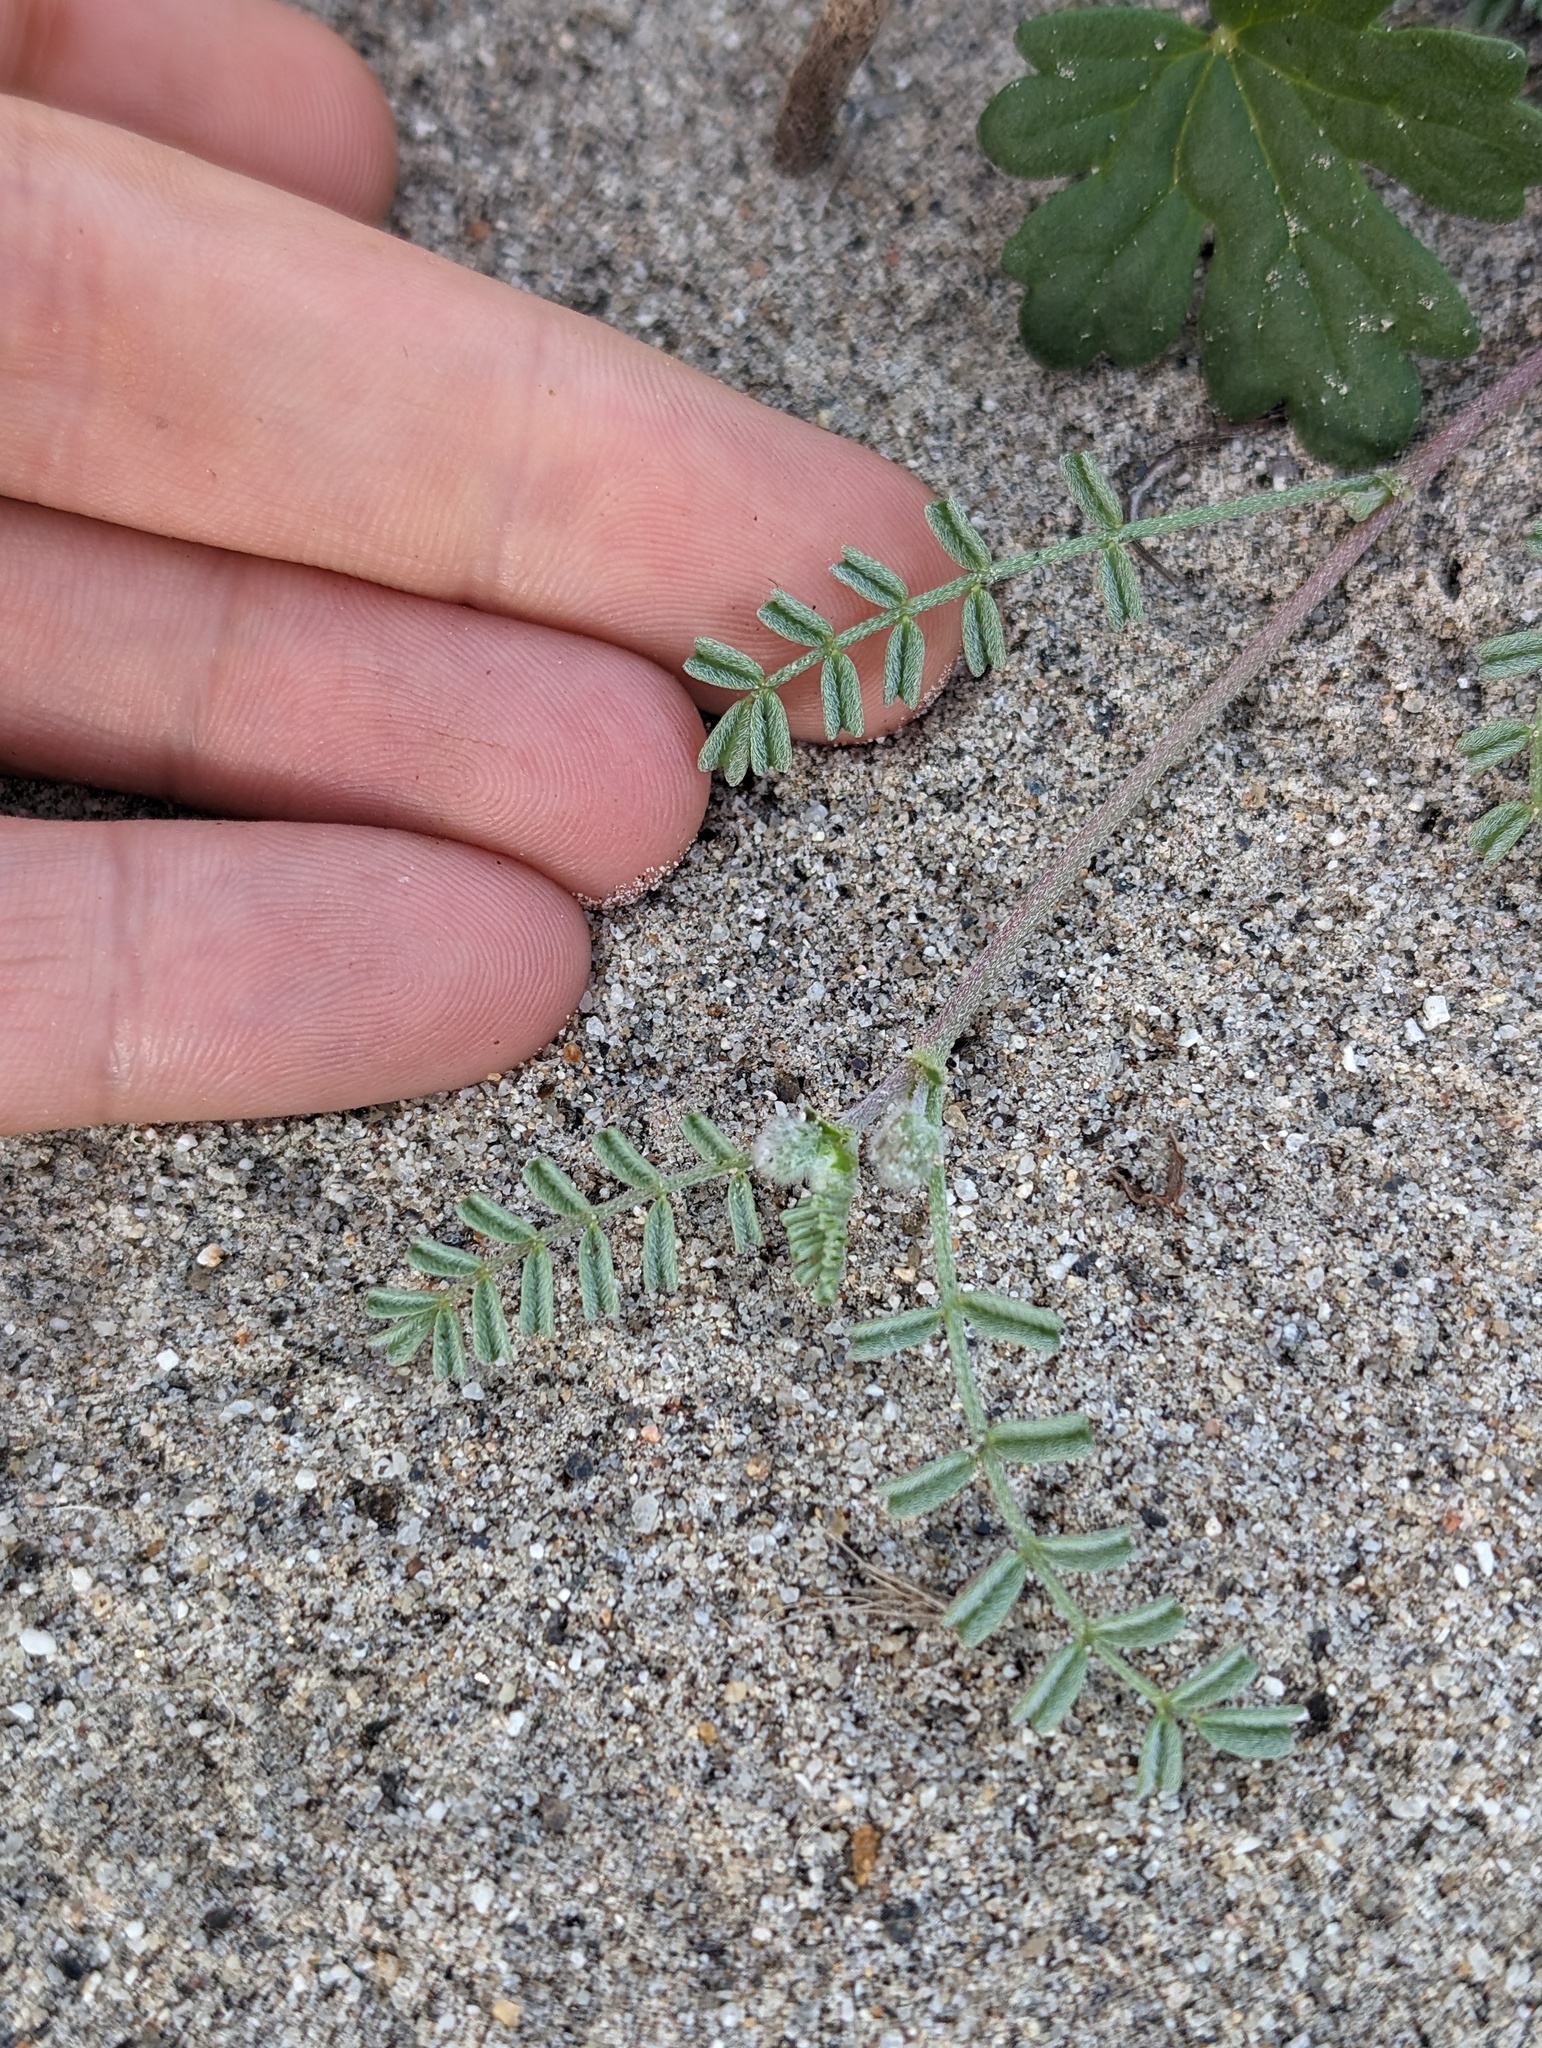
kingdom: Plantae
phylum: Tracheophyta
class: Magnoliopsida
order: Fabales
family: Fabaceae
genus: Astragalus
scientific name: Astragalus didymocarpus
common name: Dwarf white milkvetch
